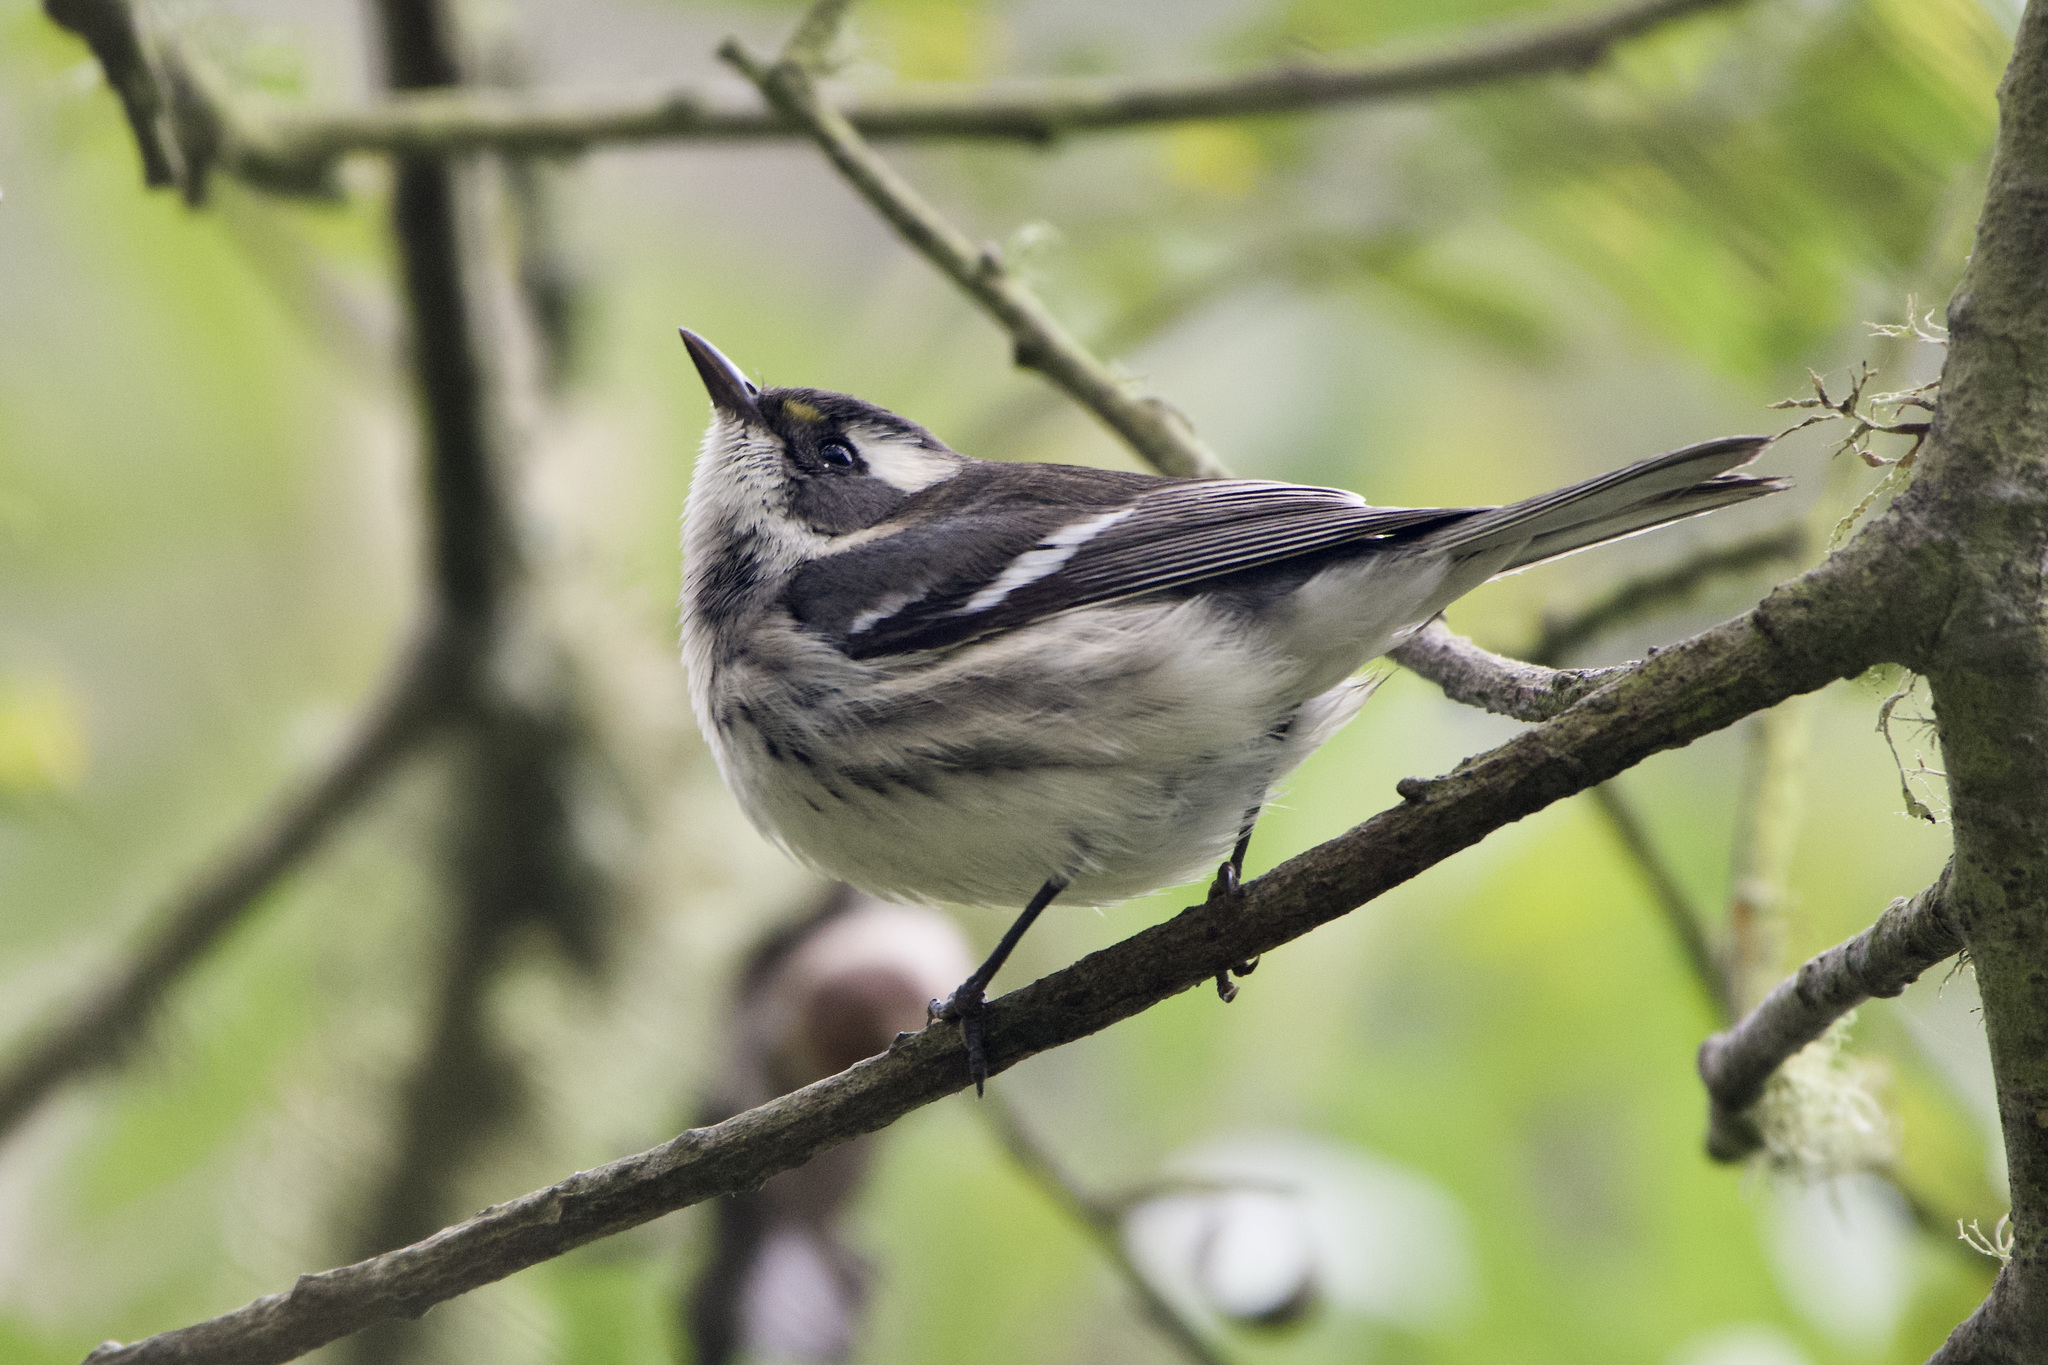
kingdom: Animalia
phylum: Chordata
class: Aves
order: Passeriformes
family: Parulidae
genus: Setophaga
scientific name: Setophaga nigrescens
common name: Black-throated gray warbler
